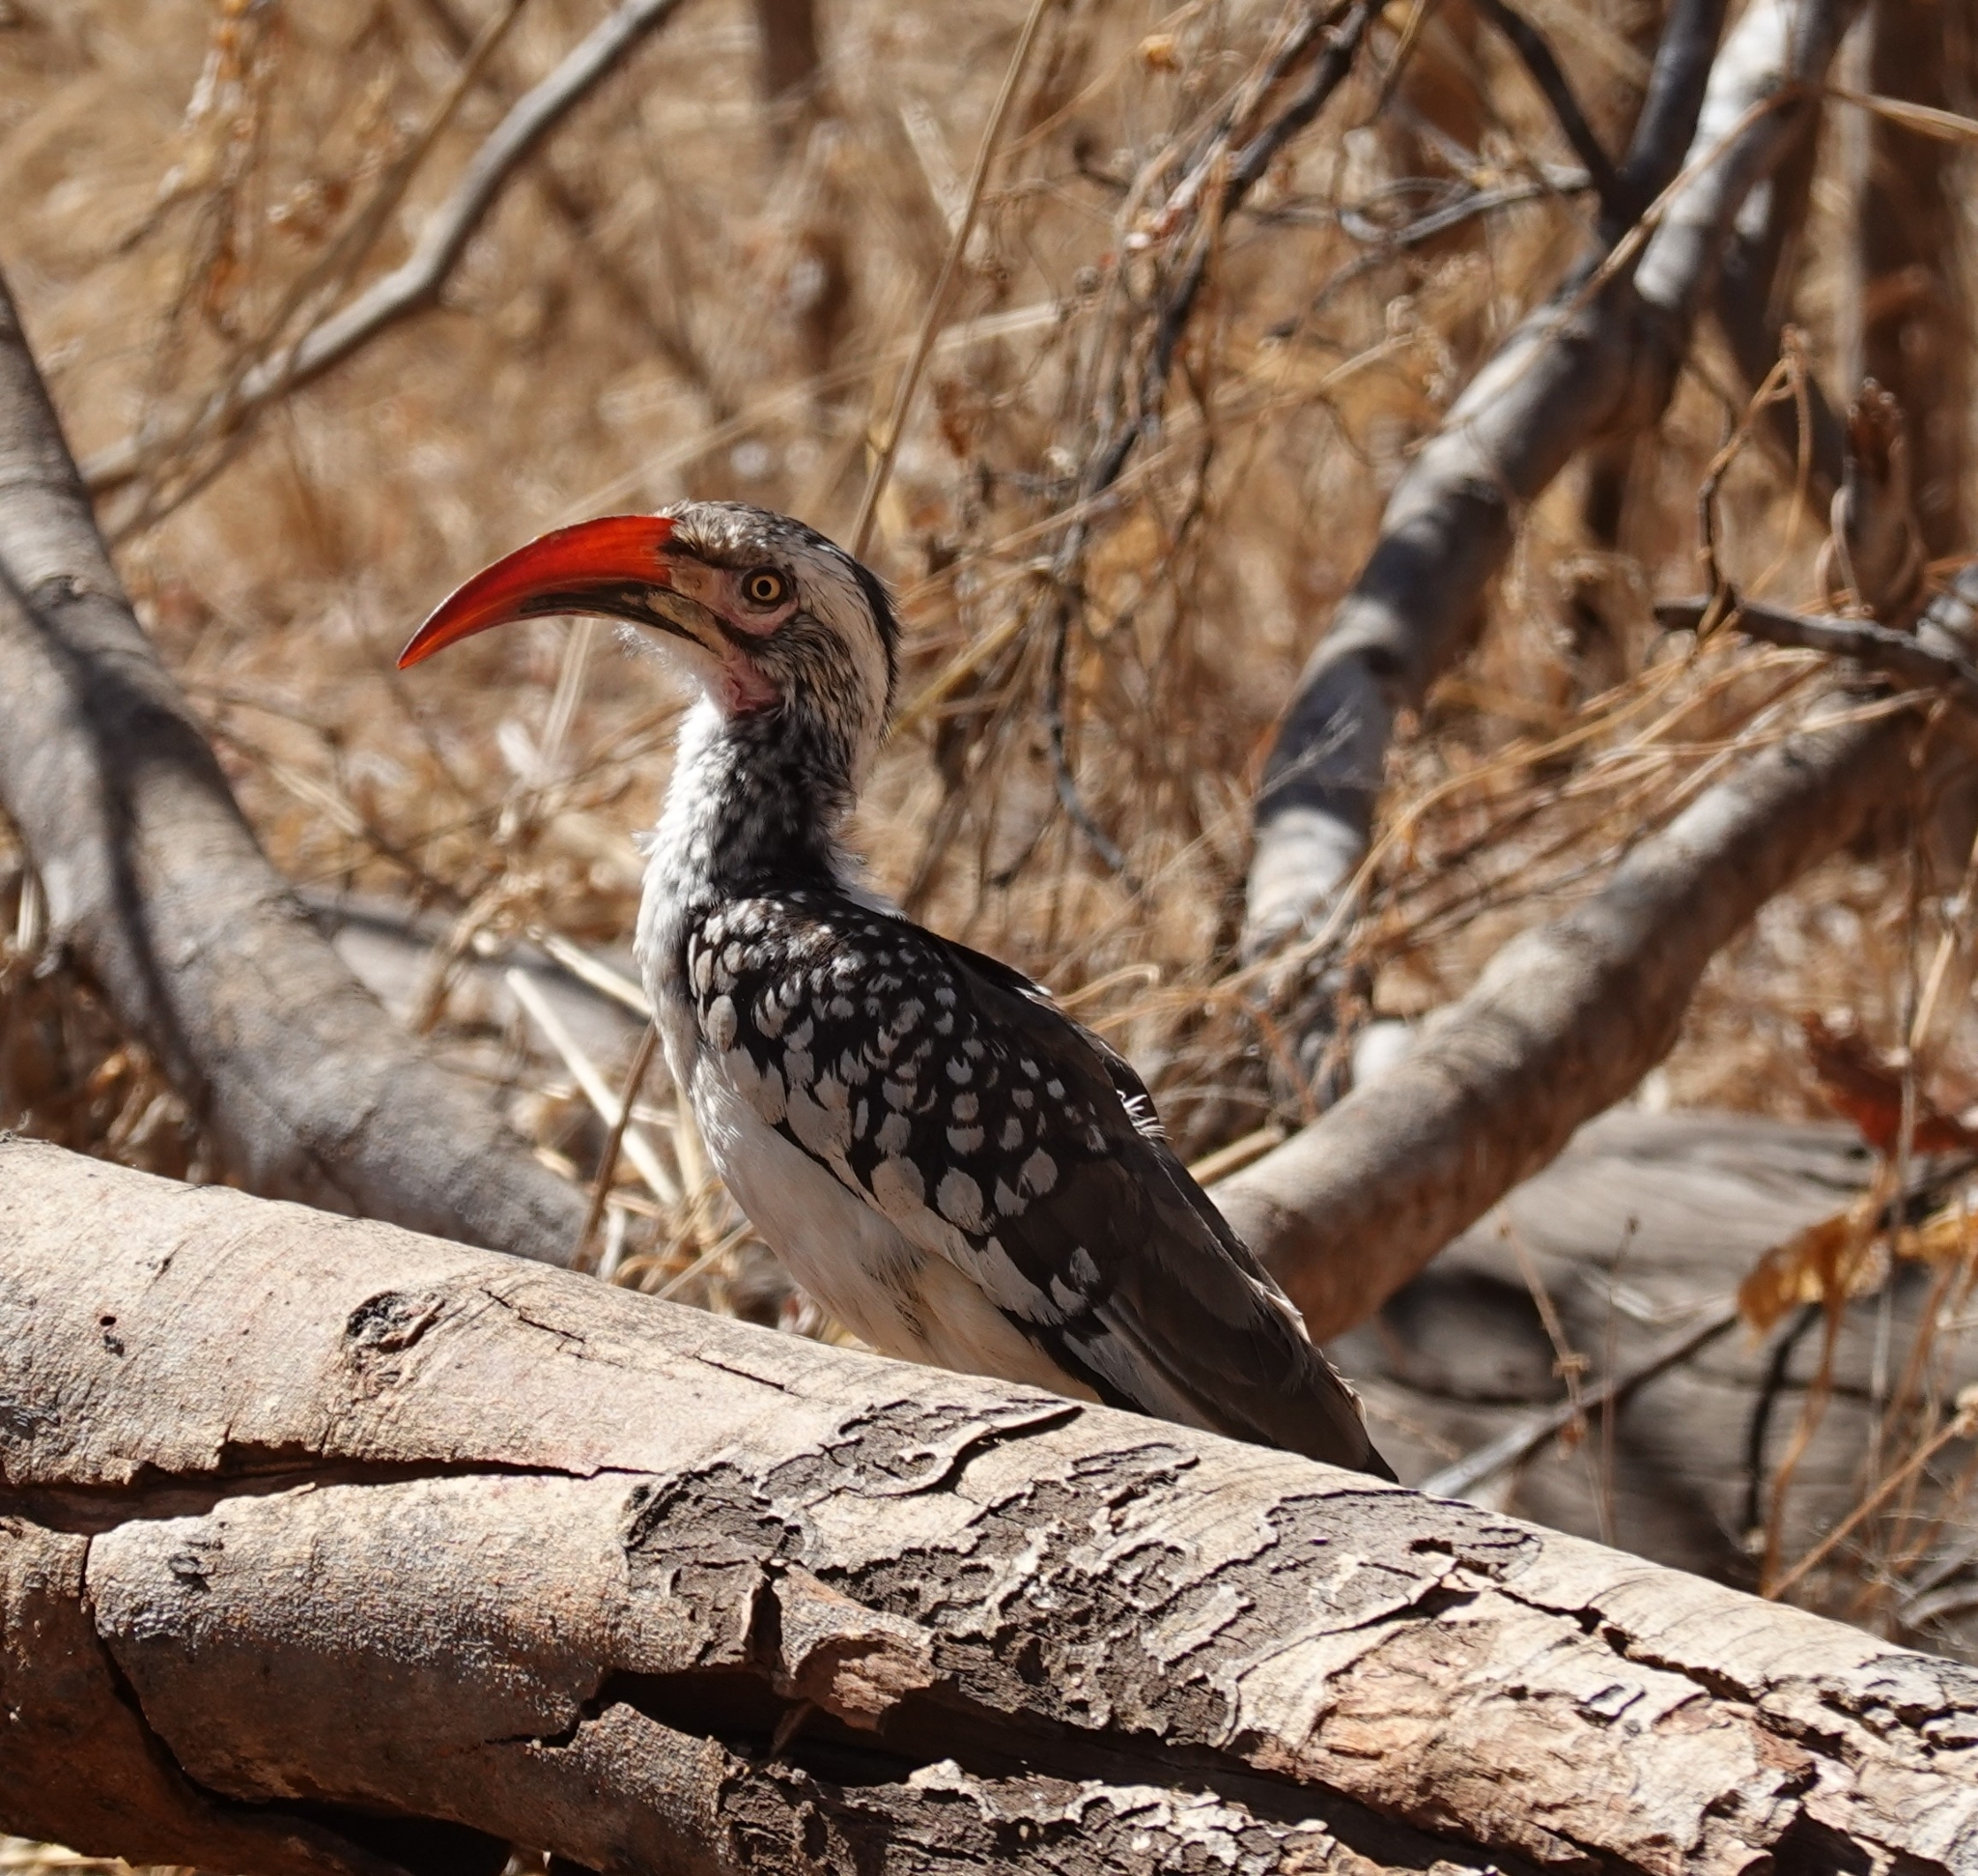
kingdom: Animalia
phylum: Chordata
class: Aves
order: Bucerotiformes
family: Bucerotidae
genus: Tockus
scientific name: Tockus rufirostris
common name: Southern red-billed hornbill
